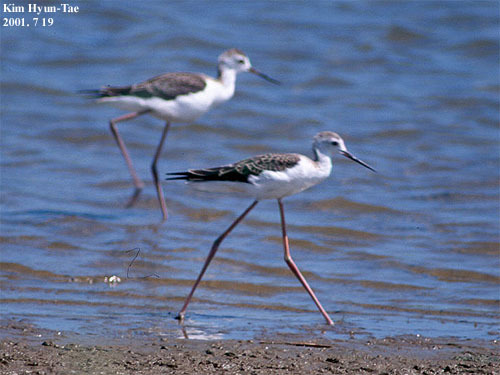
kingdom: Animalia
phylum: Chordata
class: Aves
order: Charadriiformes
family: Recurvirostridae
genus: Himantopus
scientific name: Himantopus himantopus
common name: Black-winged stilt
